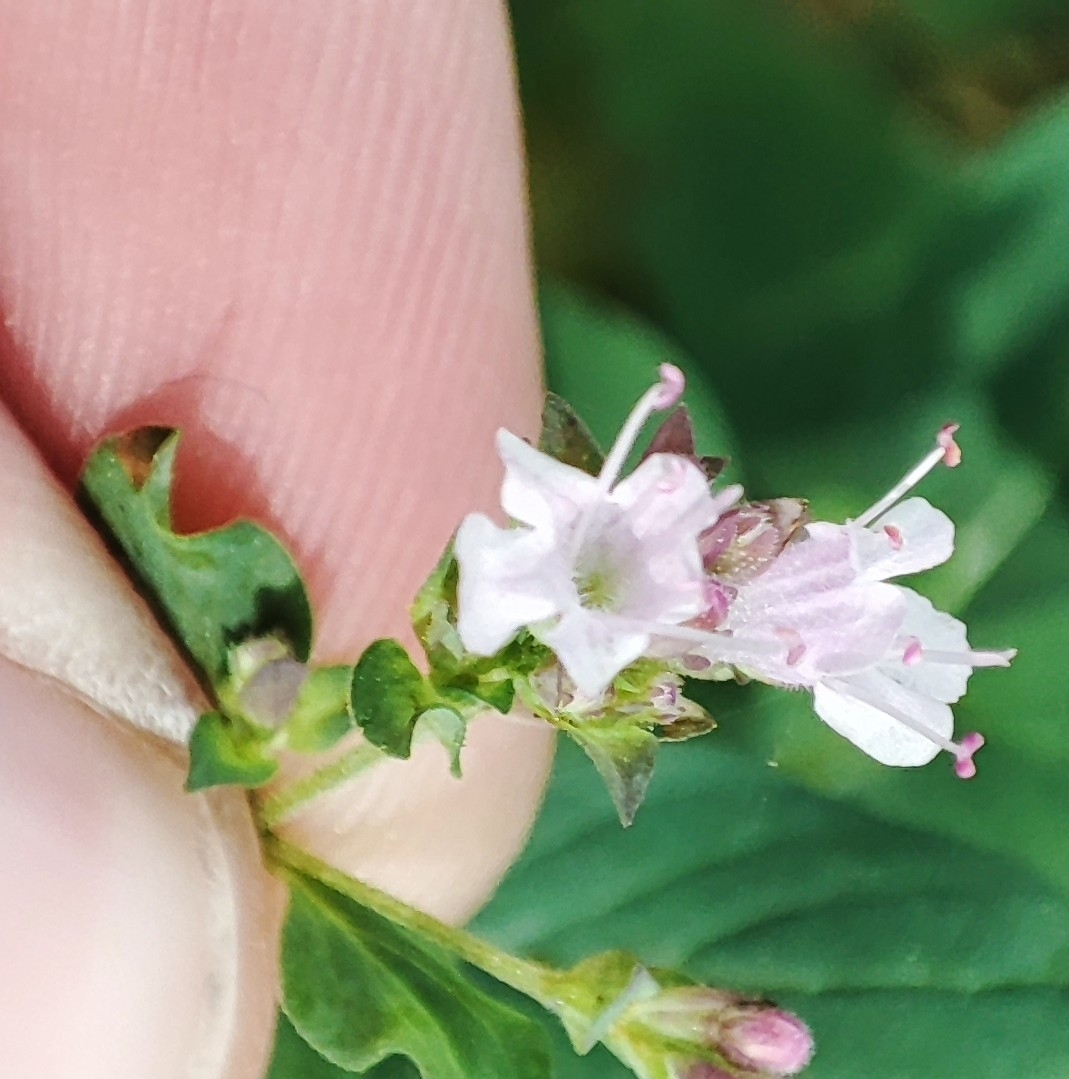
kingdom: Plantae
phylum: Tracheophyta
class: Magnoliopsida
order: Lamiales
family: Lamiaceae
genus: Origanum
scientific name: Origanum vulgare
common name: Wild marjoram
